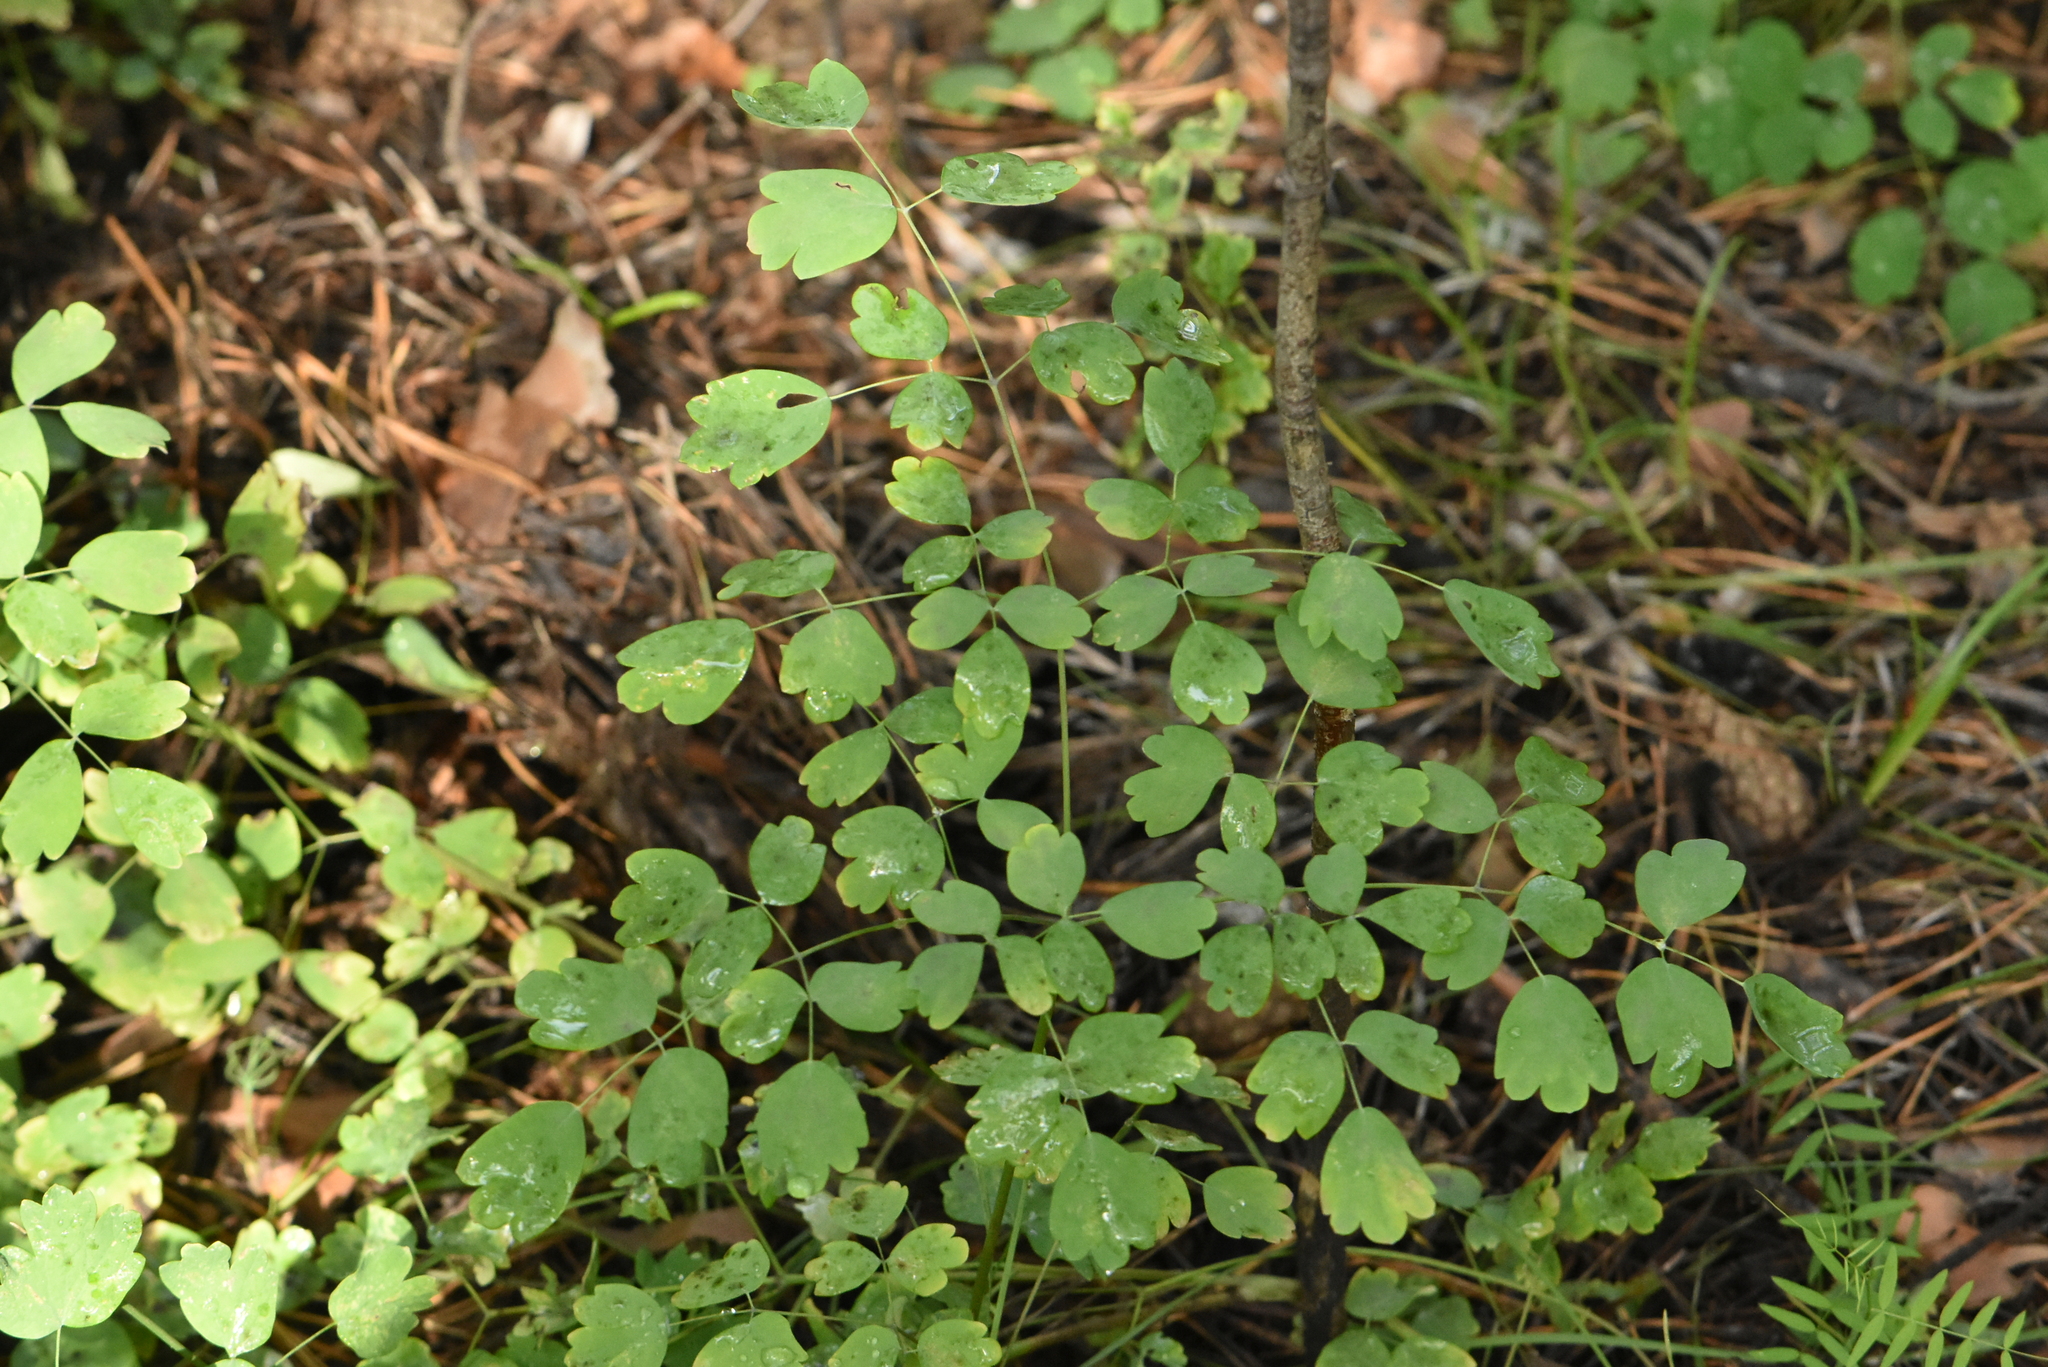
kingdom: Plantae
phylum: Tracheophyta
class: Magnoliopsida
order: Ranunculales
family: Ranunculaceae
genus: Thalictrum
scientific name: Thalictrum minus
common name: Lesser meadow-rue
